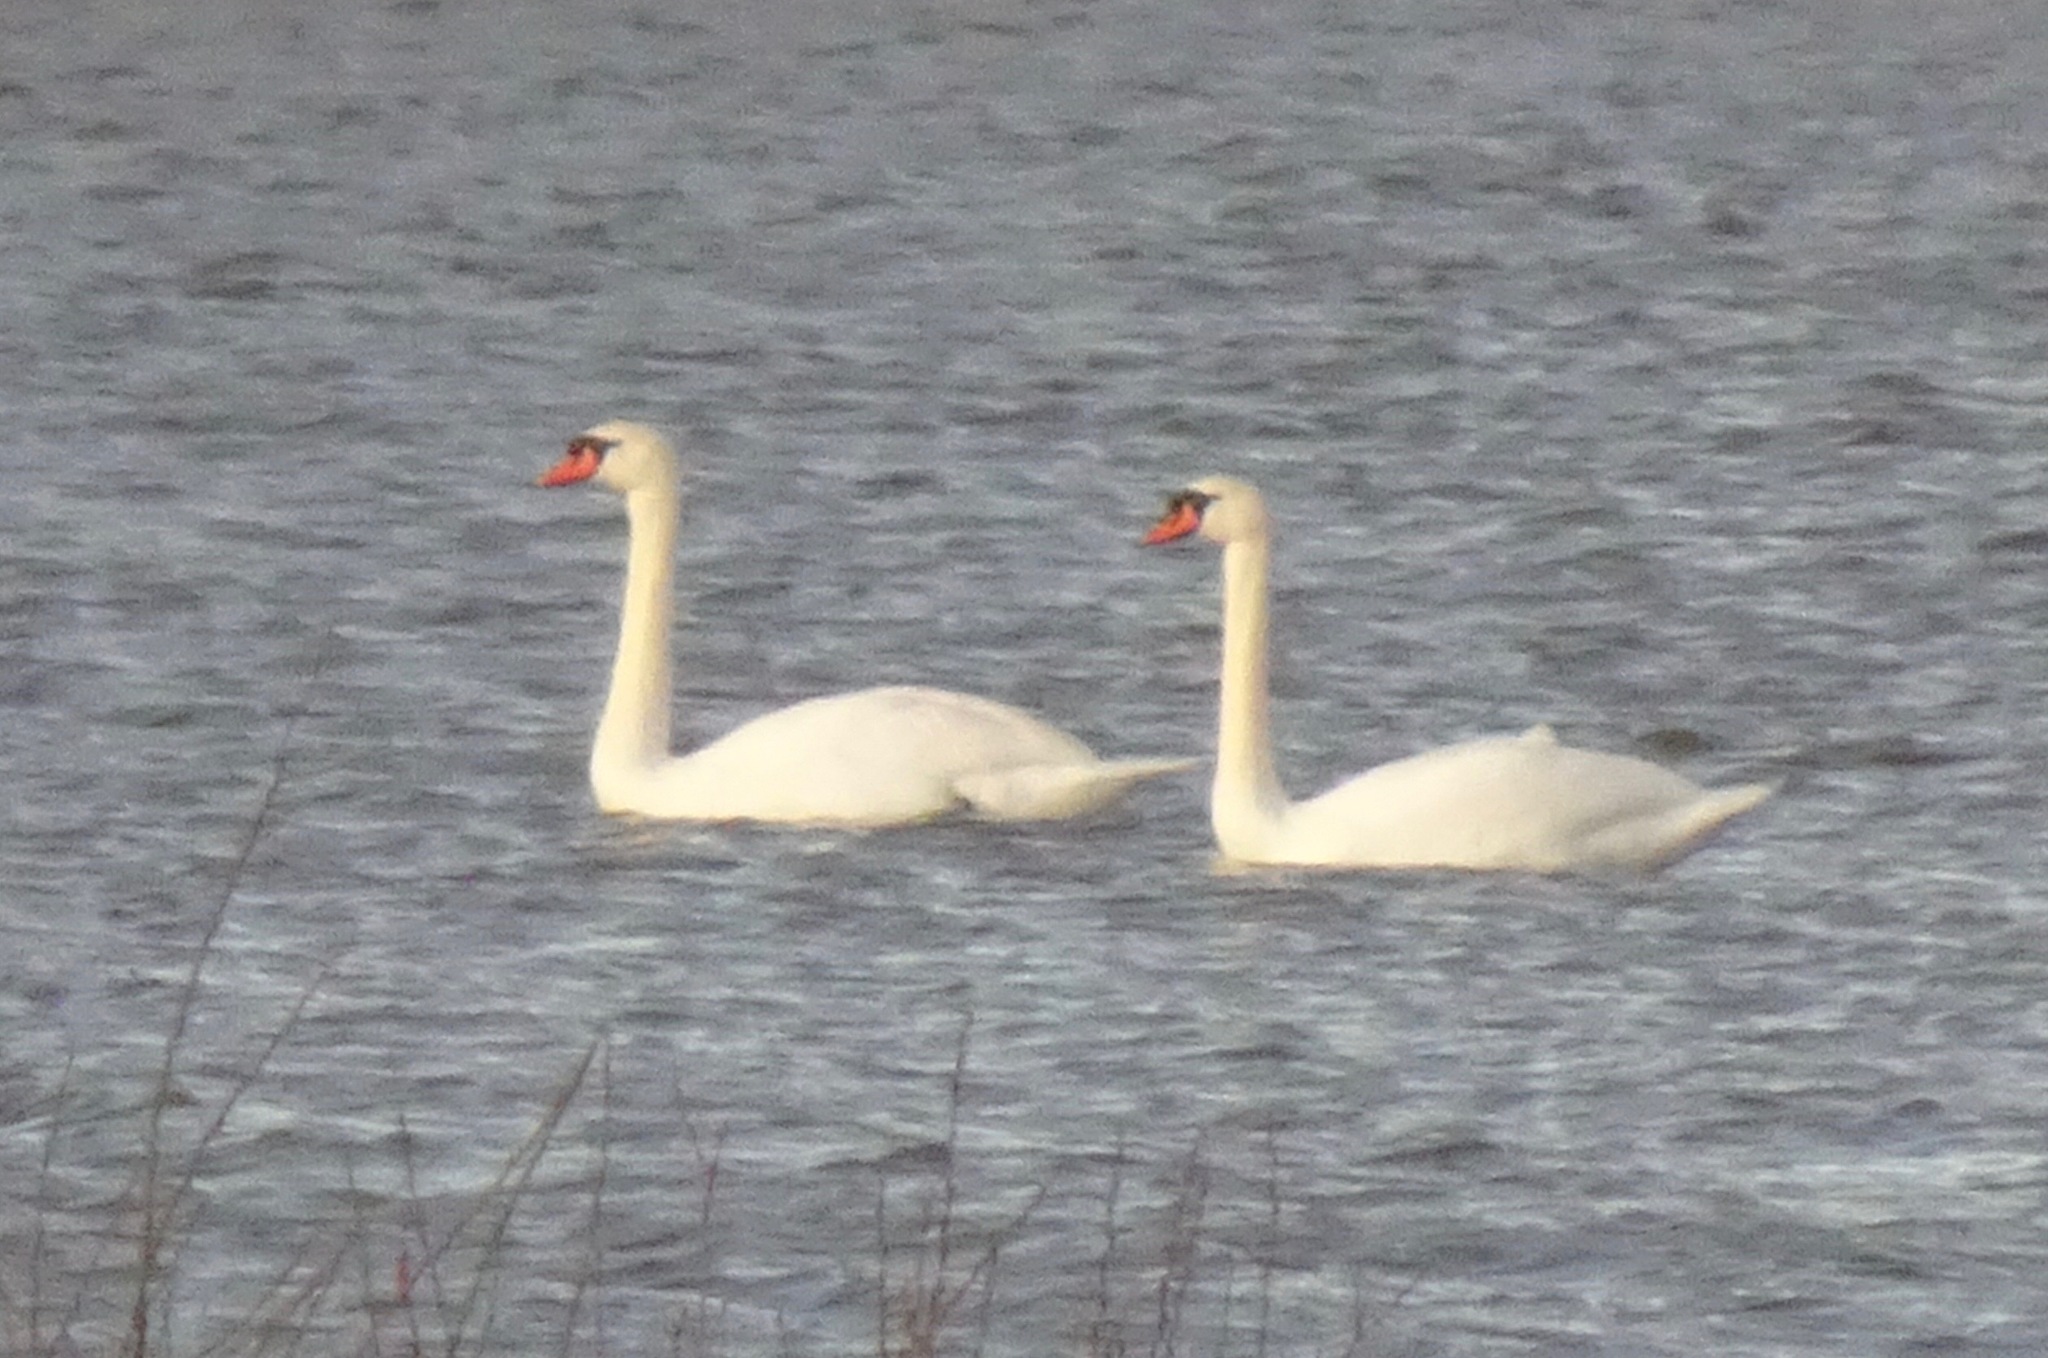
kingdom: Animalia
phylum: Chordata
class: Aves
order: Anseriformes
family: Anatidae
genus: Cygnus
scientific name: Cygnus olor
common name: Mute swan
